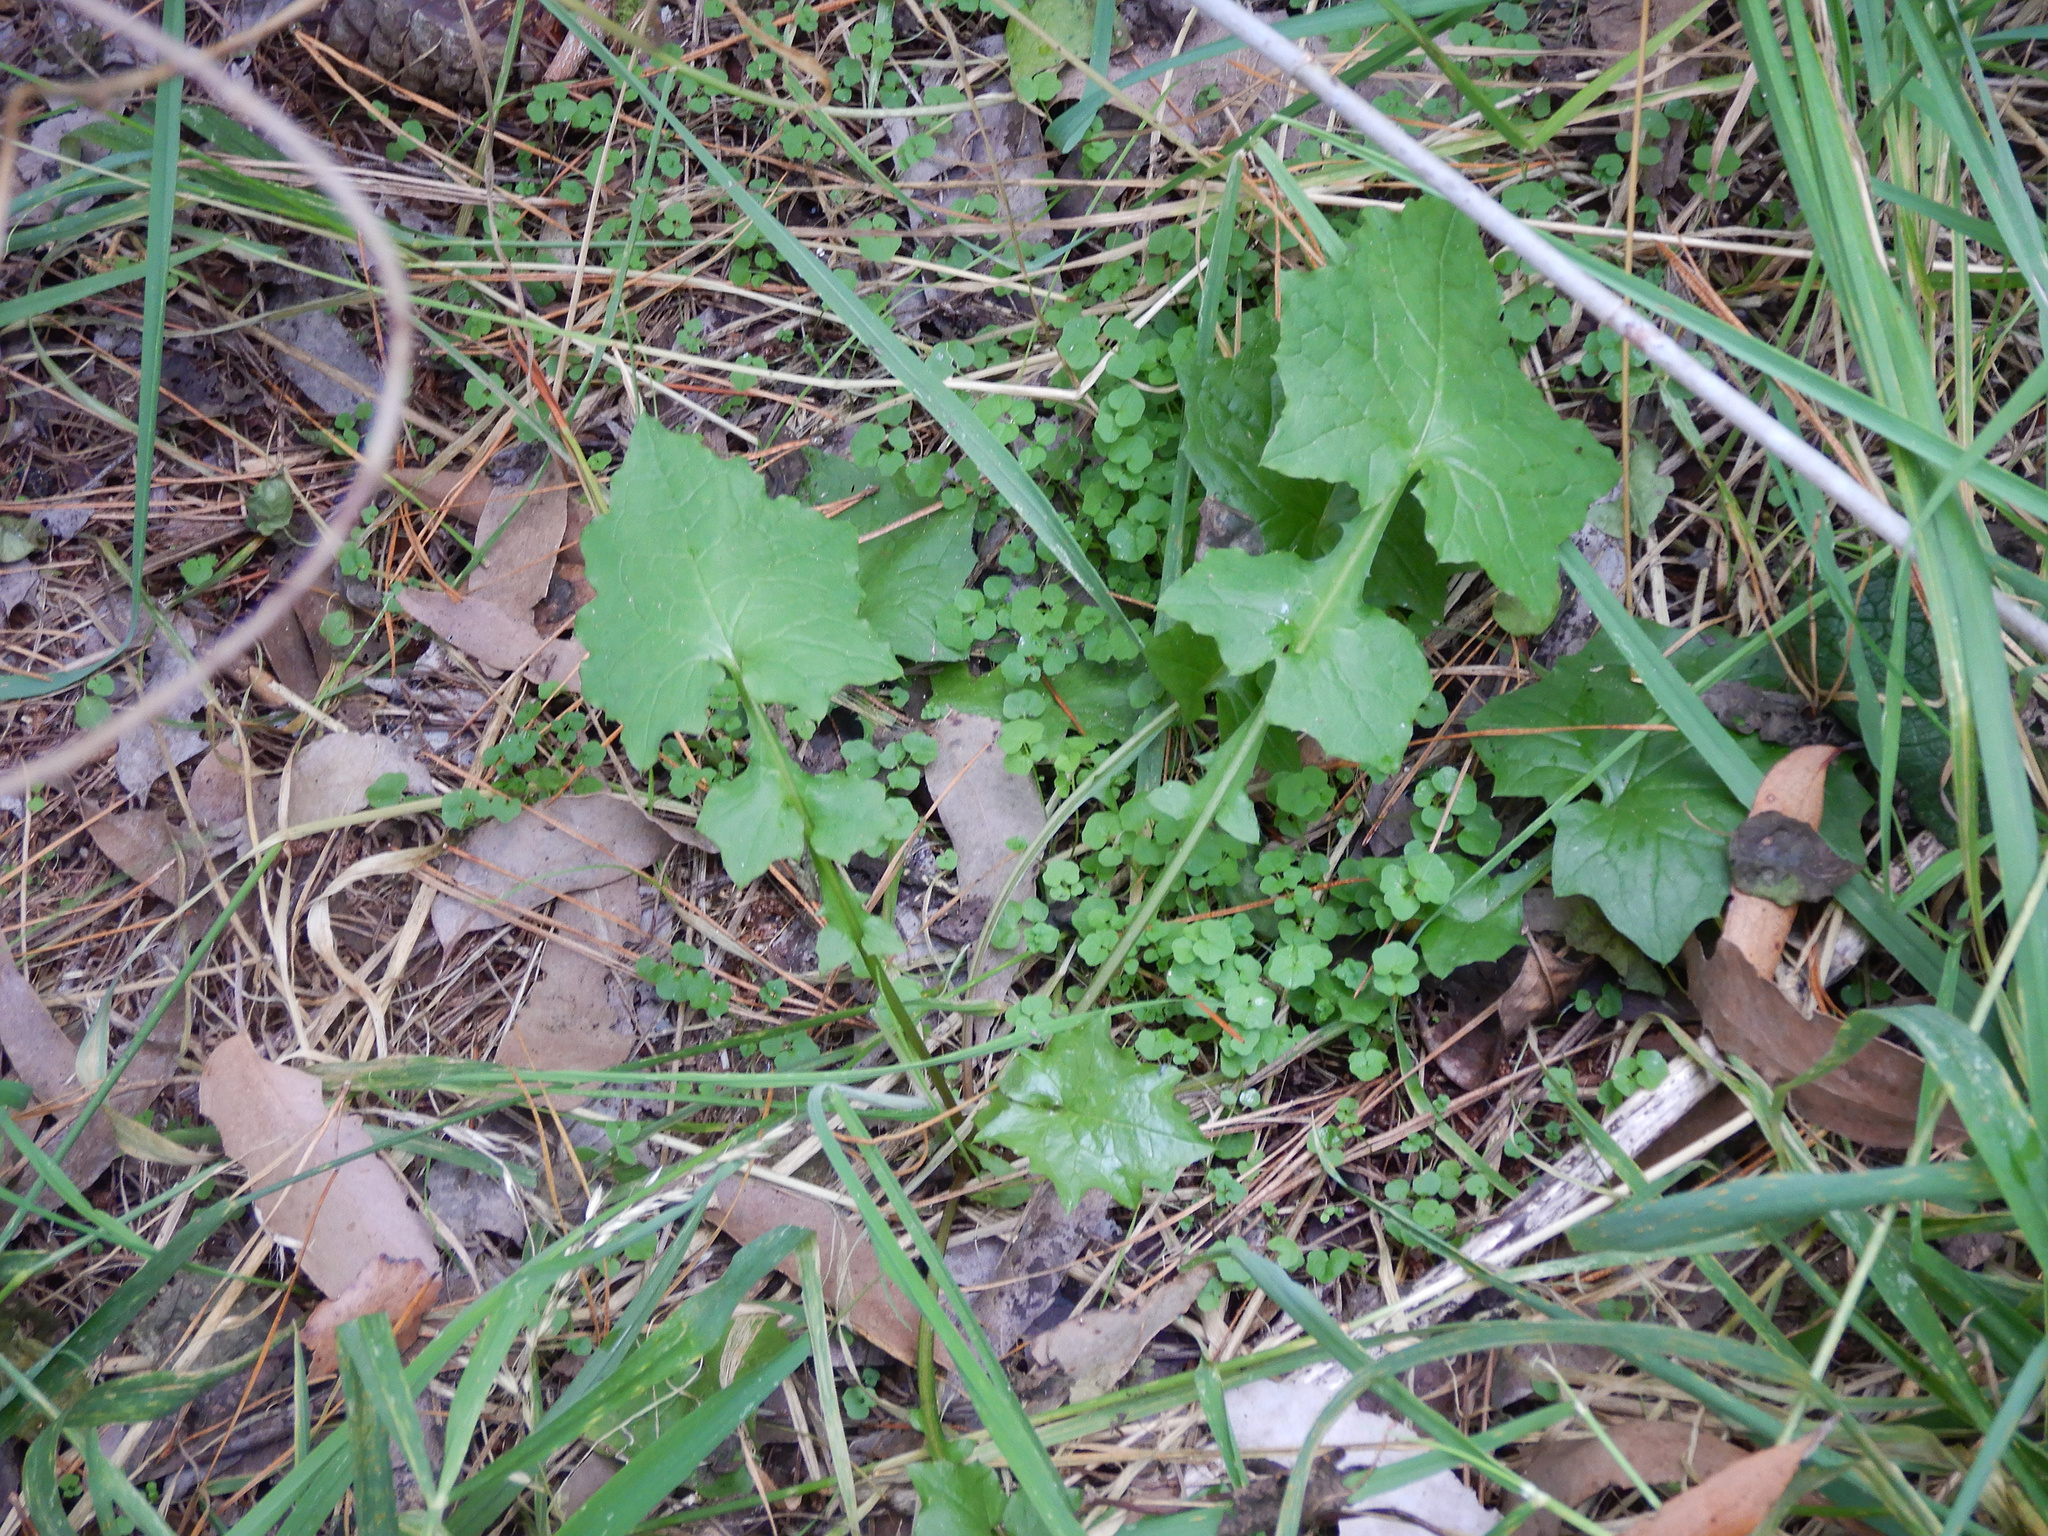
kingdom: Plantae
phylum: Tracheophyta
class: Magnoliopsida
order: Asterales
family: Asteraceae
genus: Mycelis
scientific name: Mycelis muralis
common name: Wall lettuce
